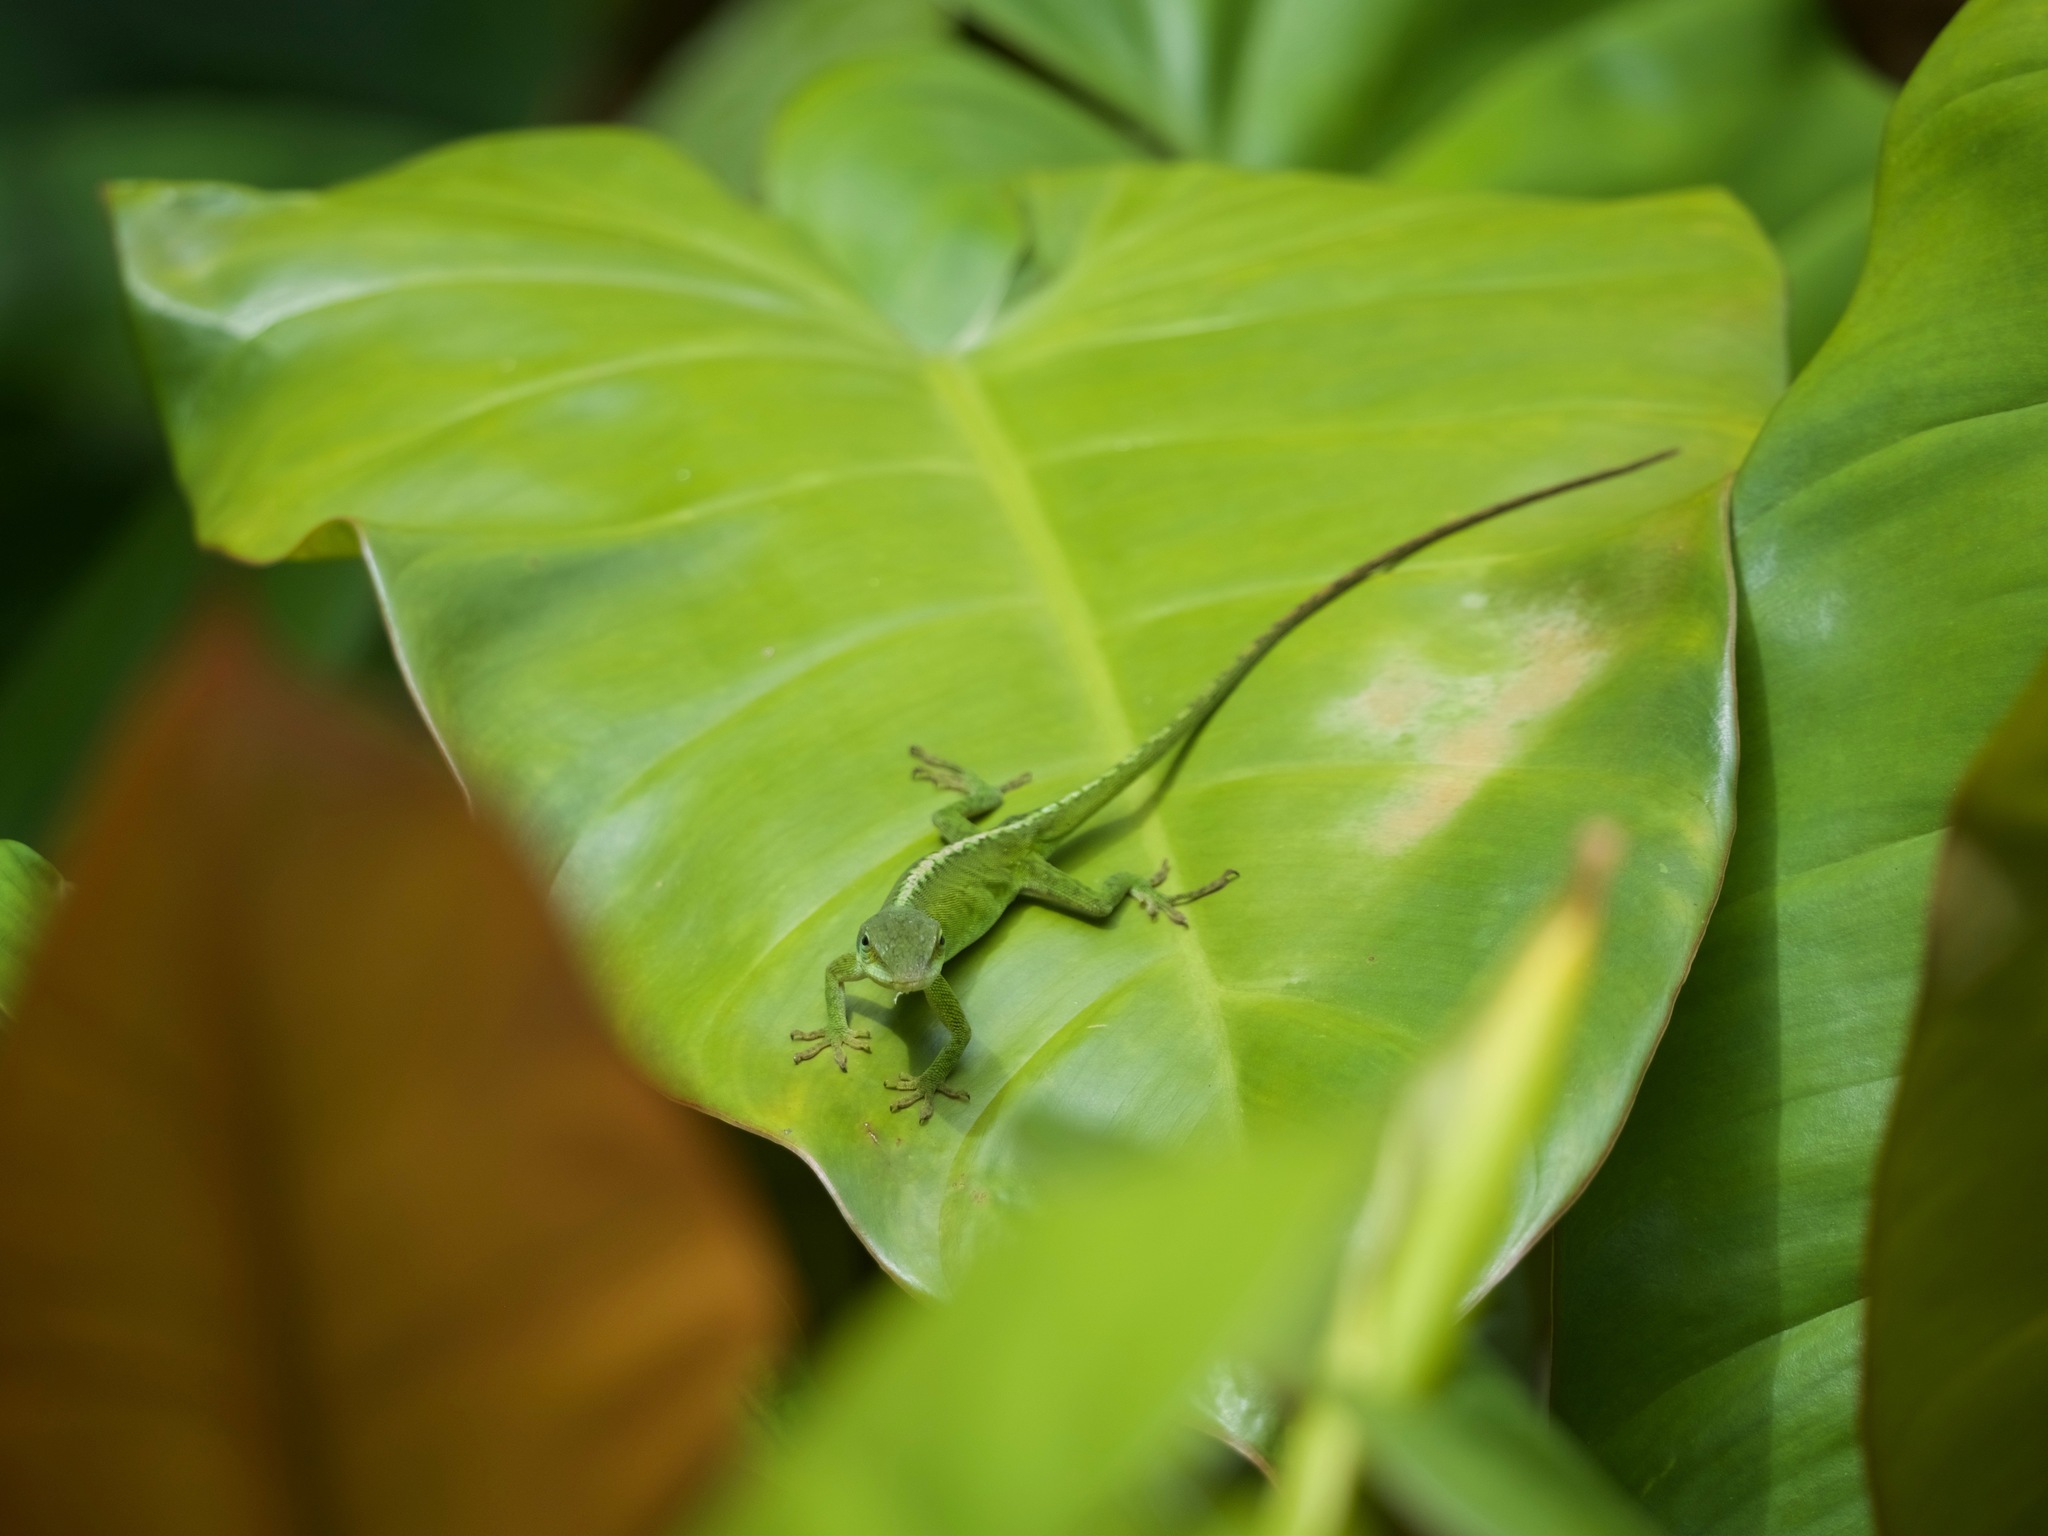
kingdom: Animalia
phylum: Chordata
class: Squamata
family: Dactyloidae
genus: Anolis
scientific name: Anolis carolinensis
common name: Green anole
